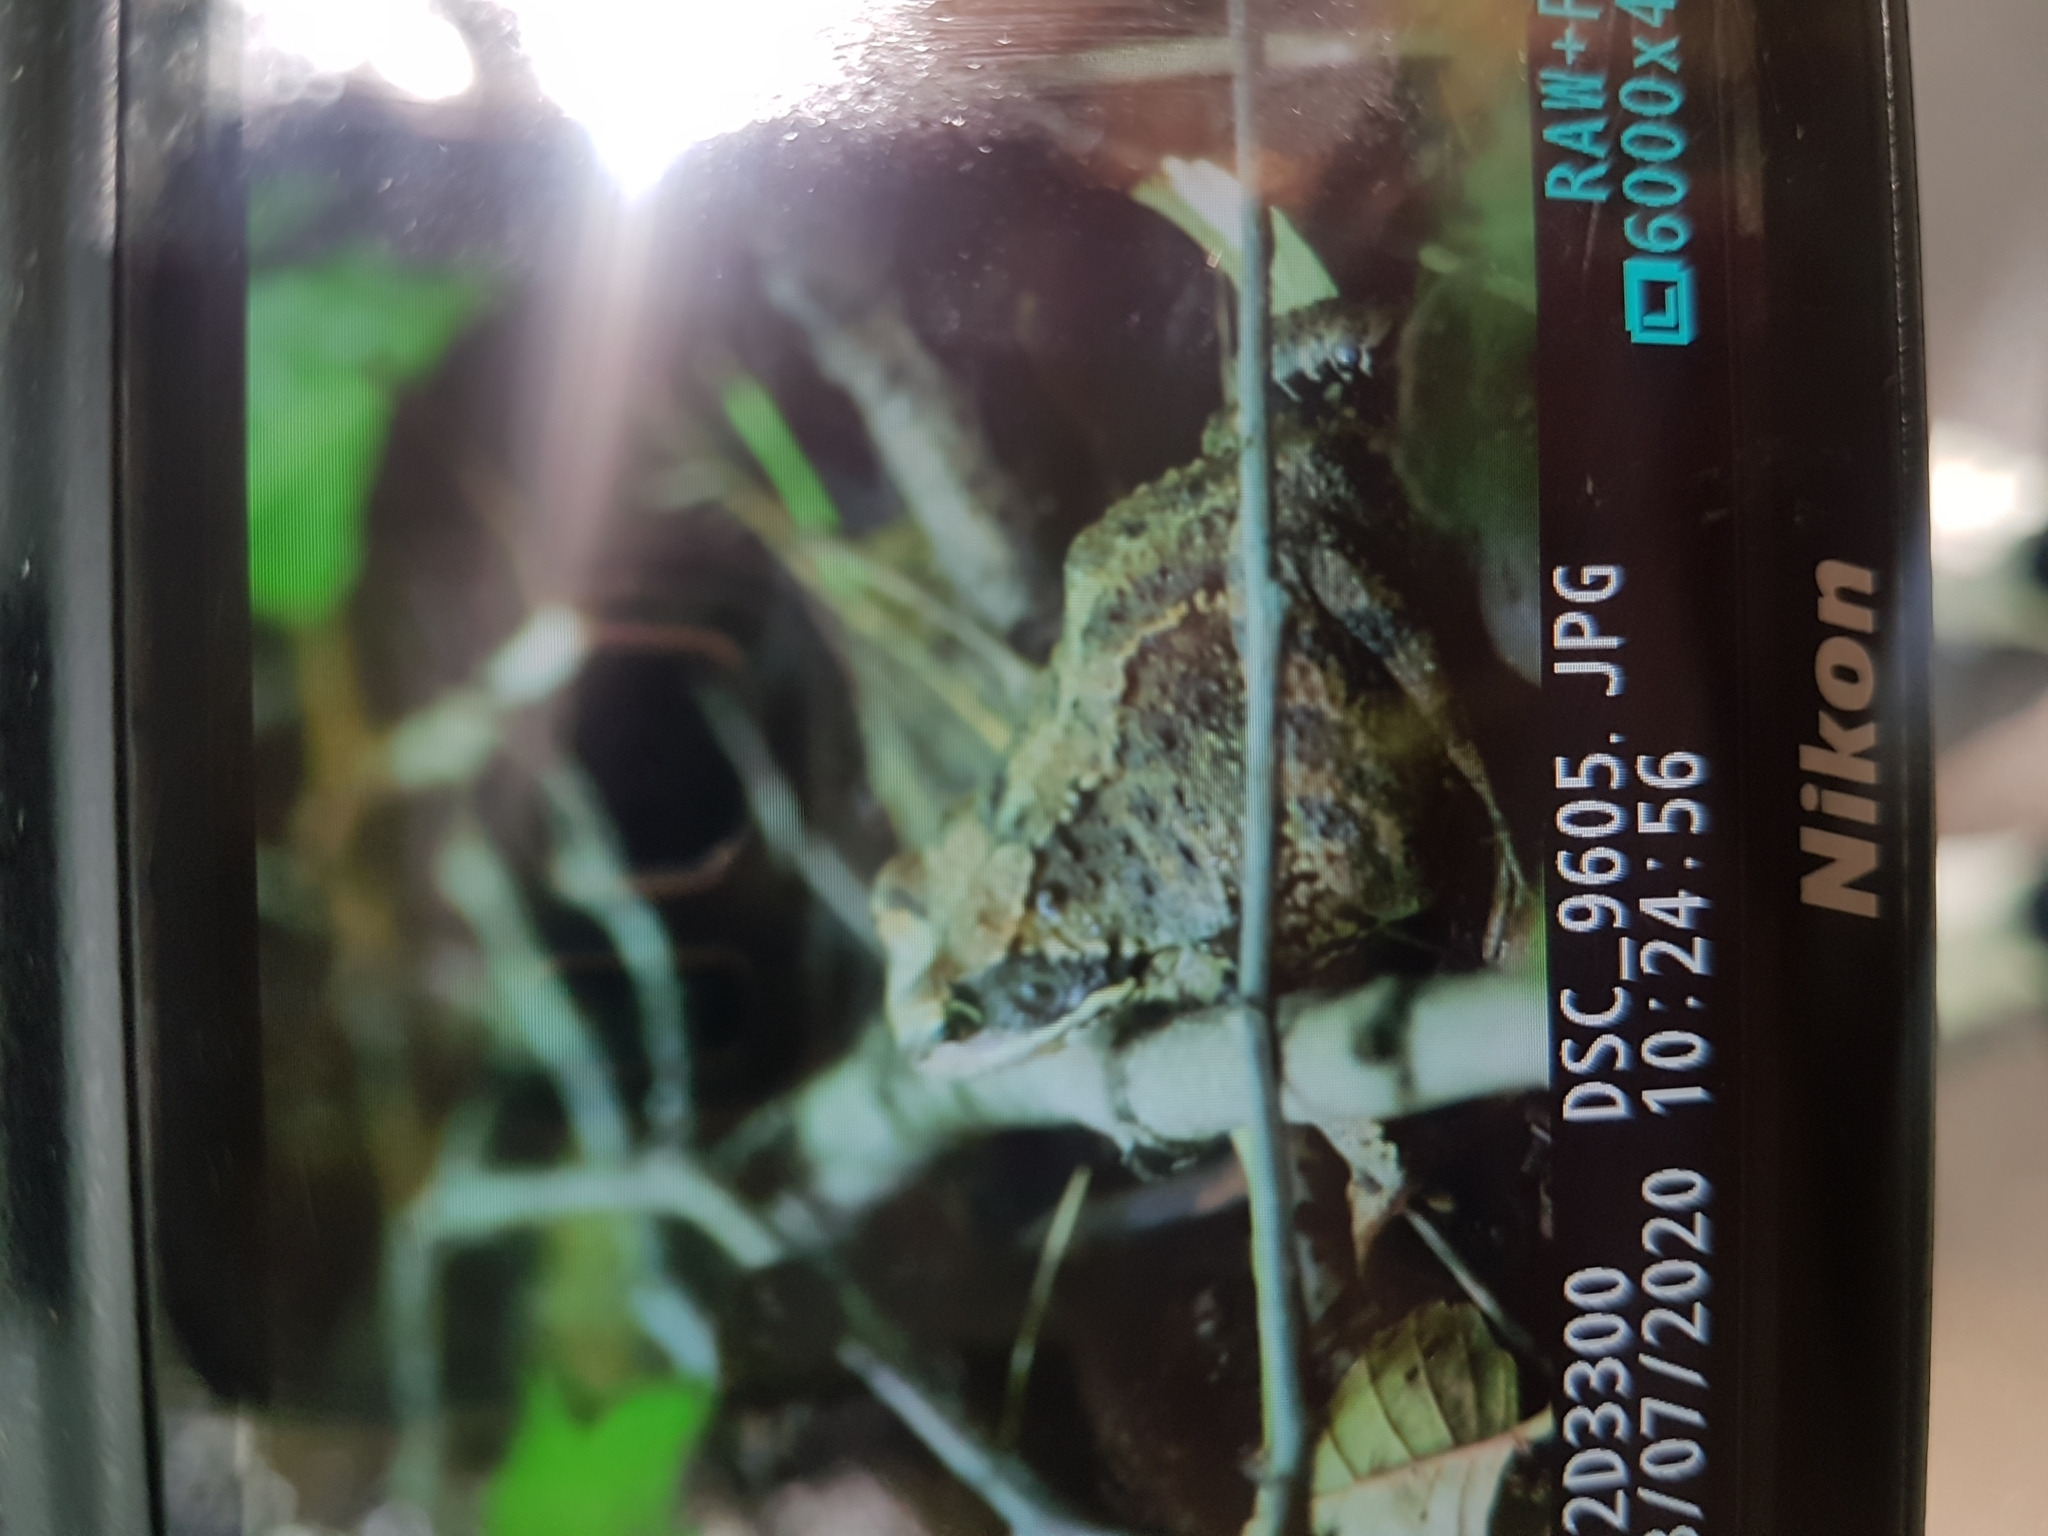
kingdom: Animalia
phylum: Chordata
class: Amphibia
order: Anura
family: Ranidae
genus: Rana
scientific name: Rana temporaria
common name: Common frog
